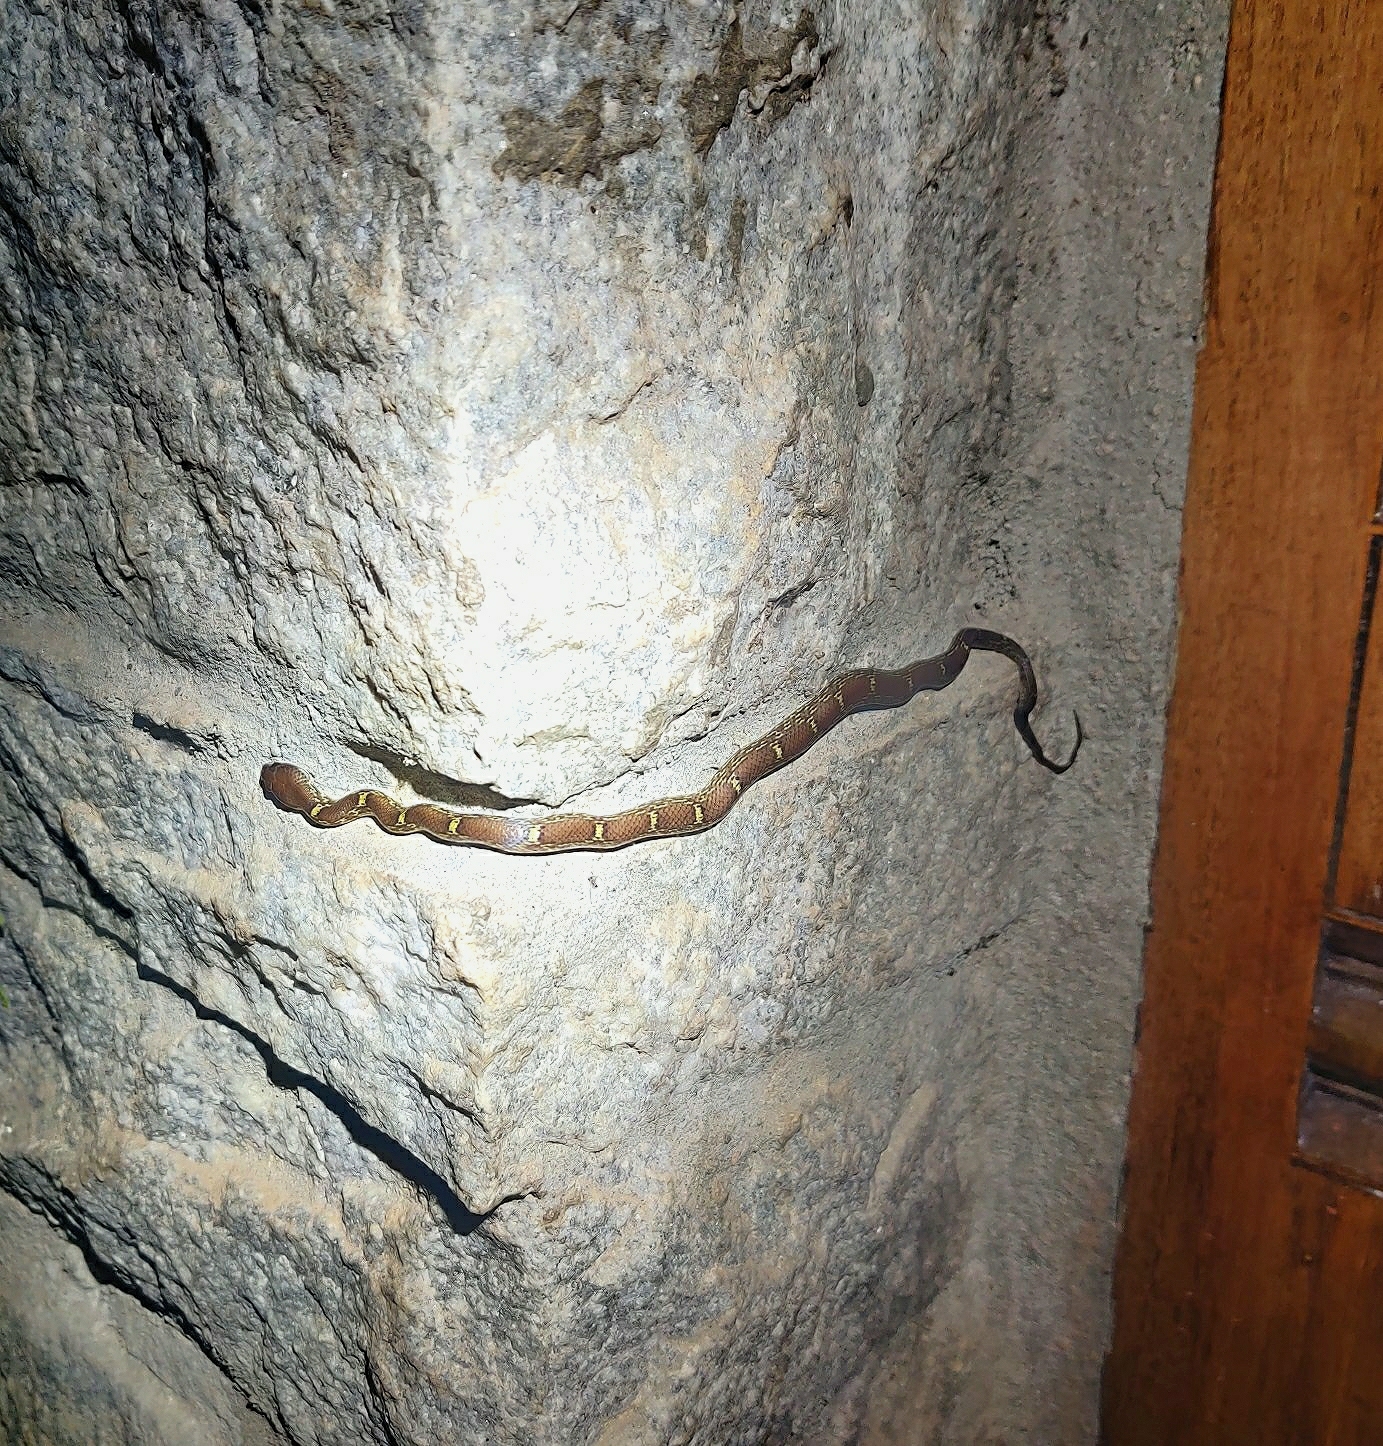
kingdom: Animalia
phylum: Chordata
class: Squamata
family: Colubridae
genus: Lycodon
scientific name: Lycodon fasciolatus
